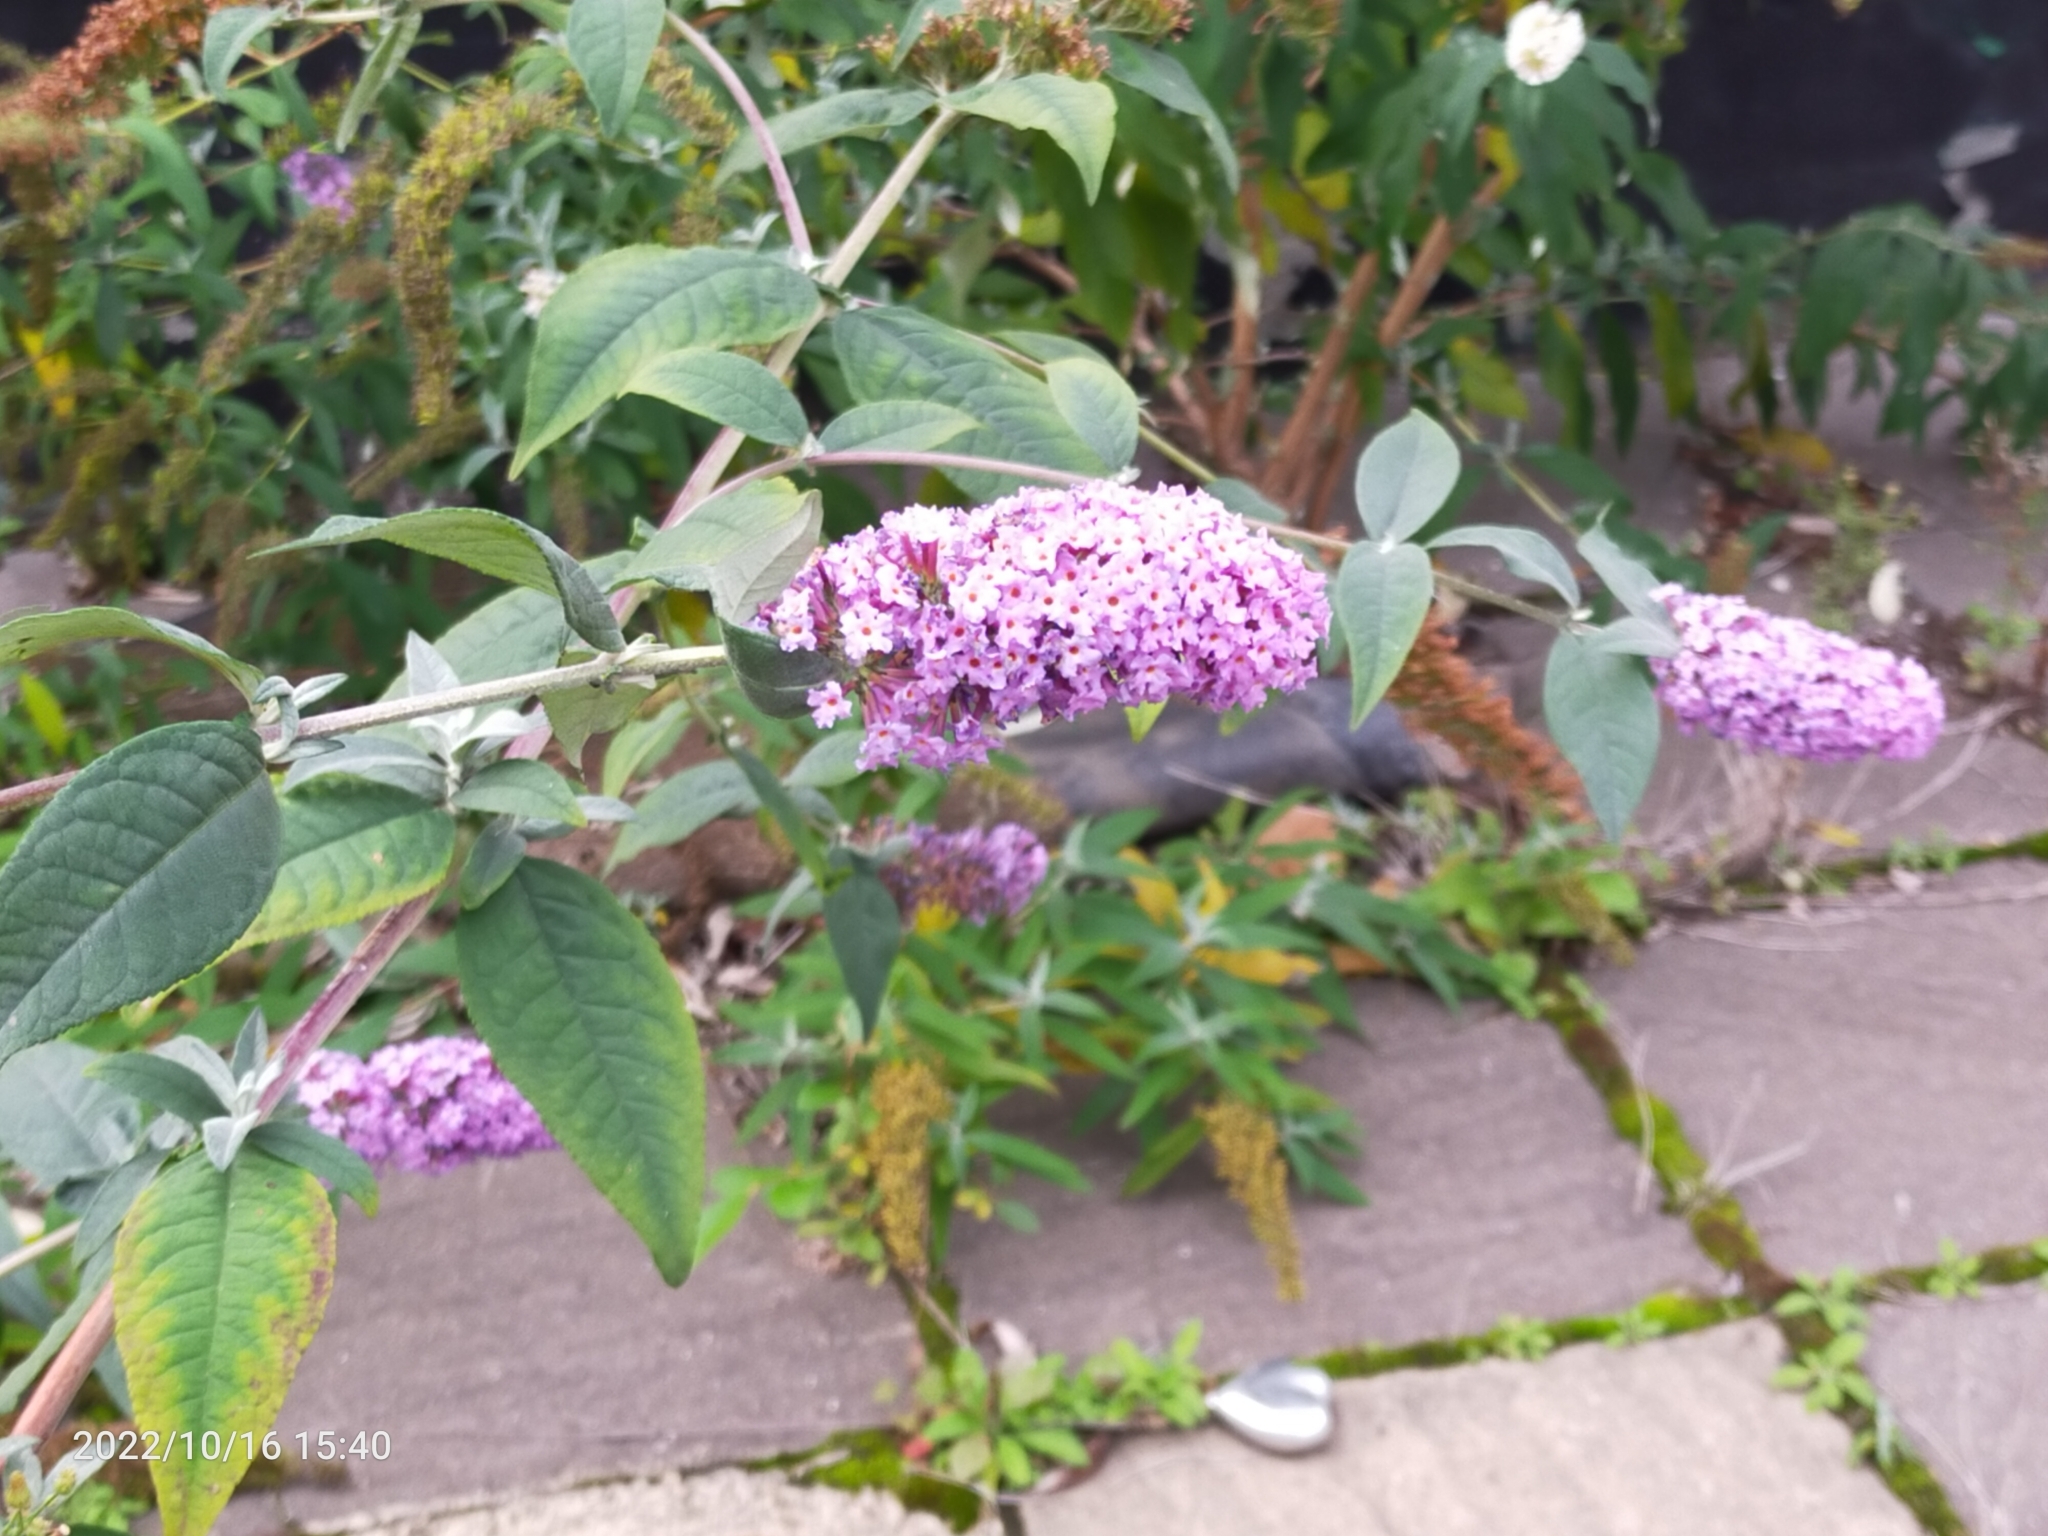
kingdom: Plantae
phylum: Tracheophyta
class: Magnoliopsida
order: Lamiales
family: Scrophulariaceae
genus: Buddleja
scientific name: Buddleja davidii
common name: Butterfly-bush
